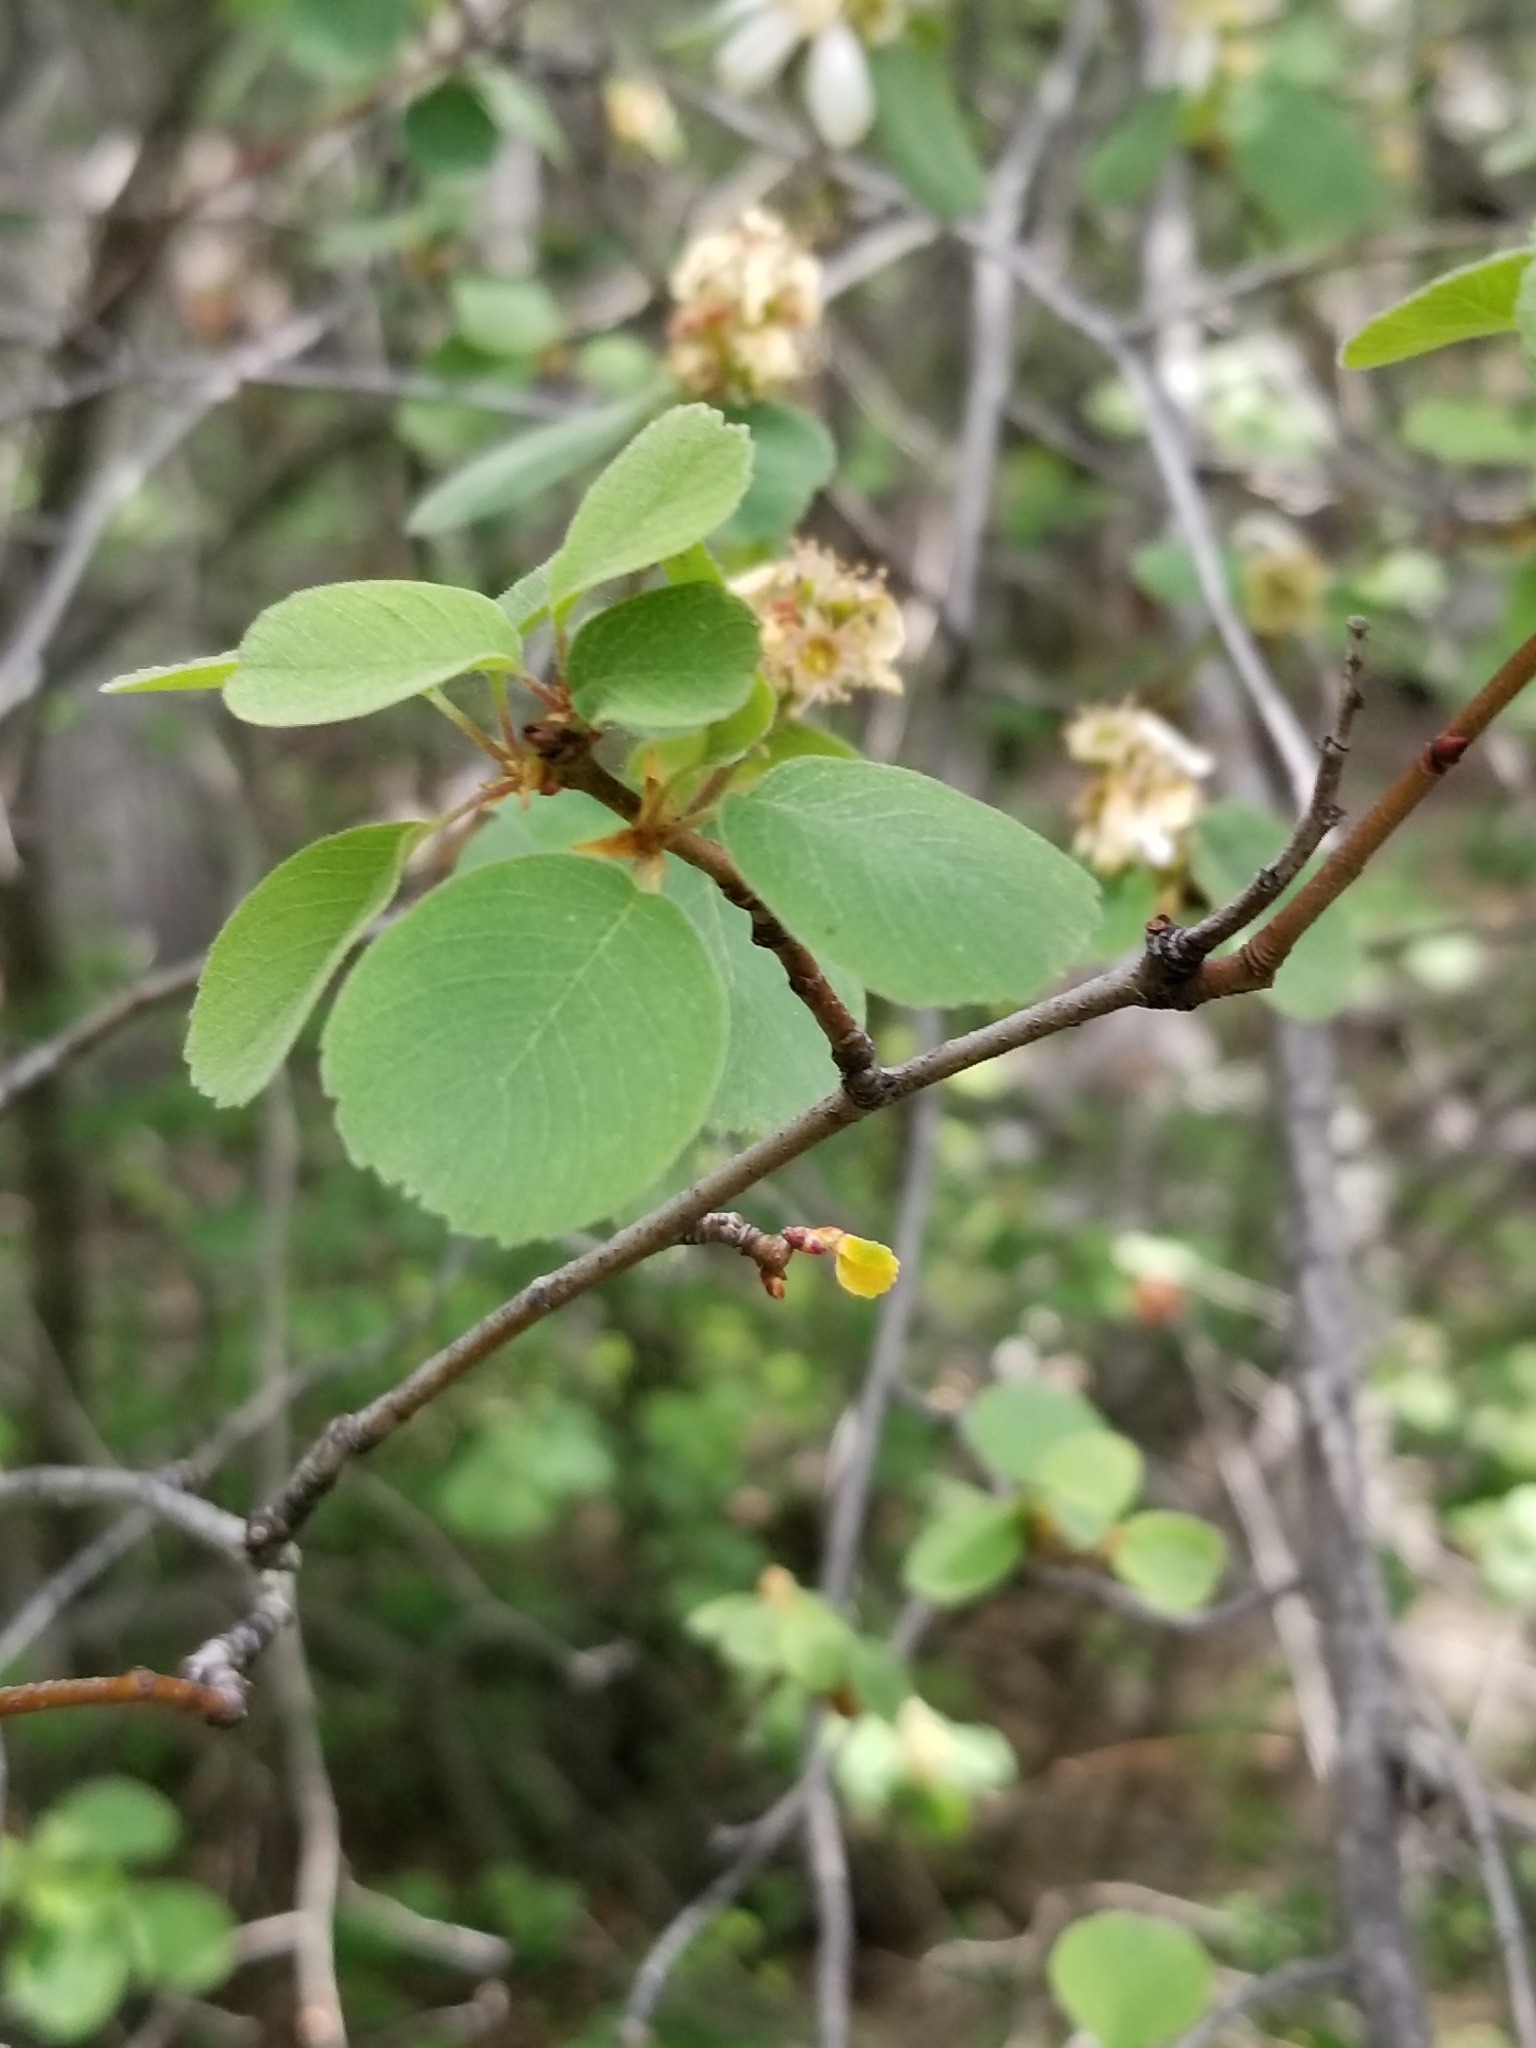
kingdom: Plantae
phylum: Tracheophyta
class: Magnoliopsida
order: Rosales
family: Rosaceae
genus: Amelanchier
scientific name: Amelanchier utahensis
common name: Utah serviceberry
